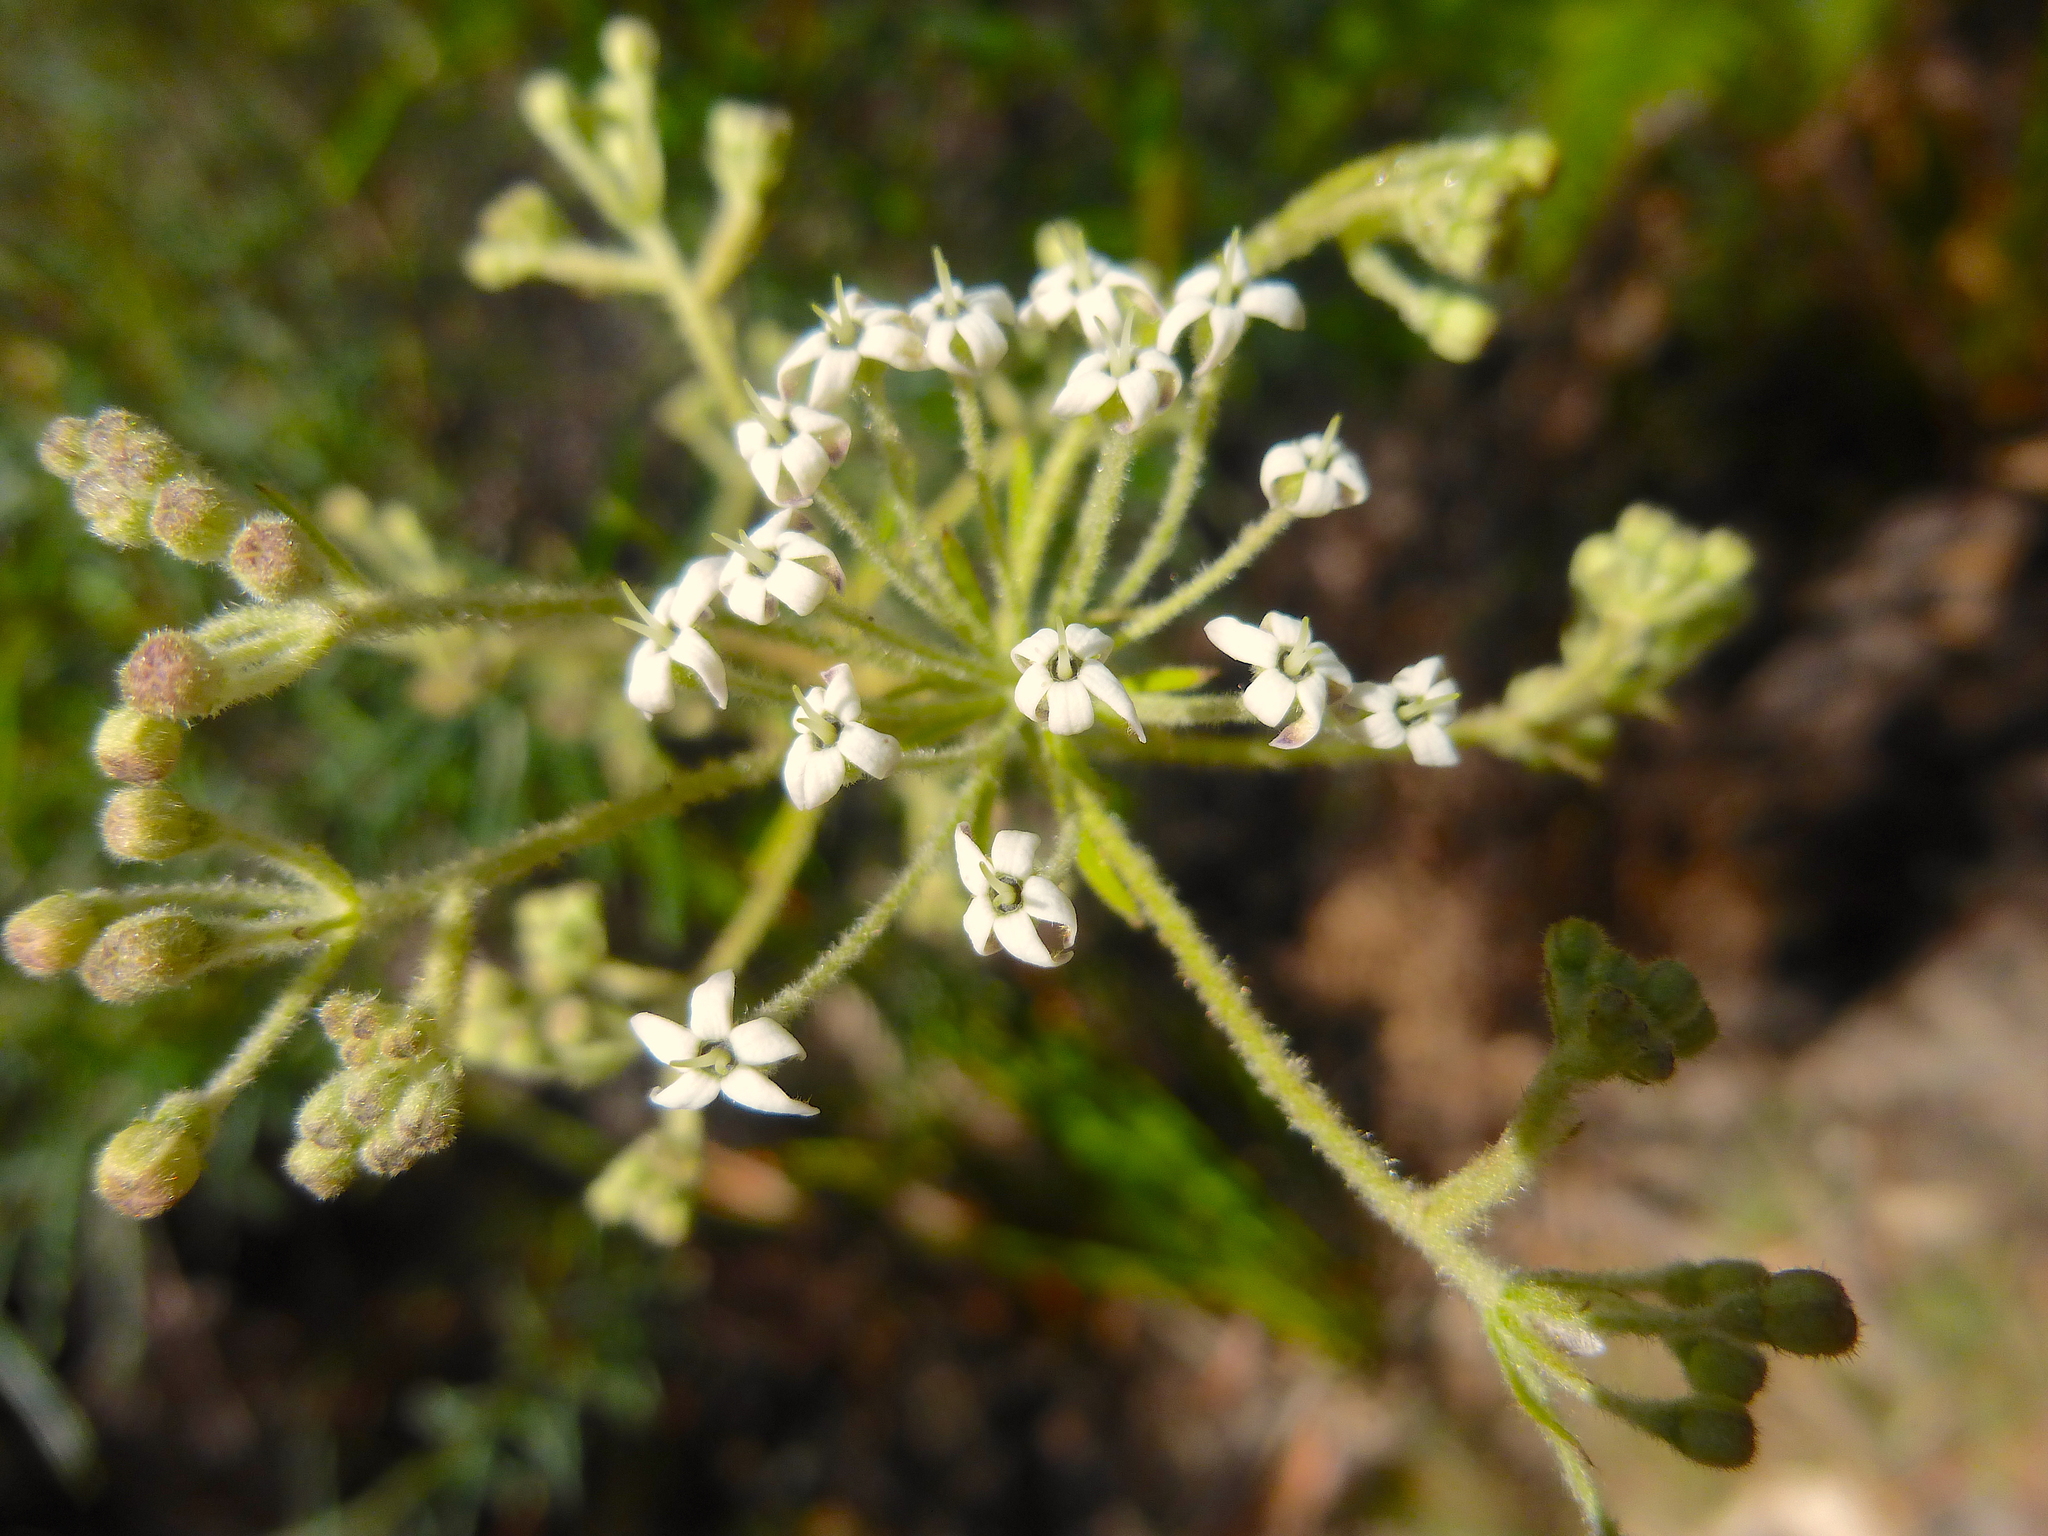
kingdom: Plantae
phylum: Tracheophyta
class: Magnoliopsida
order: Apiales
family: Araliaceae
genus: Astrotricha
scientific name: Astrotricha asperifolia
